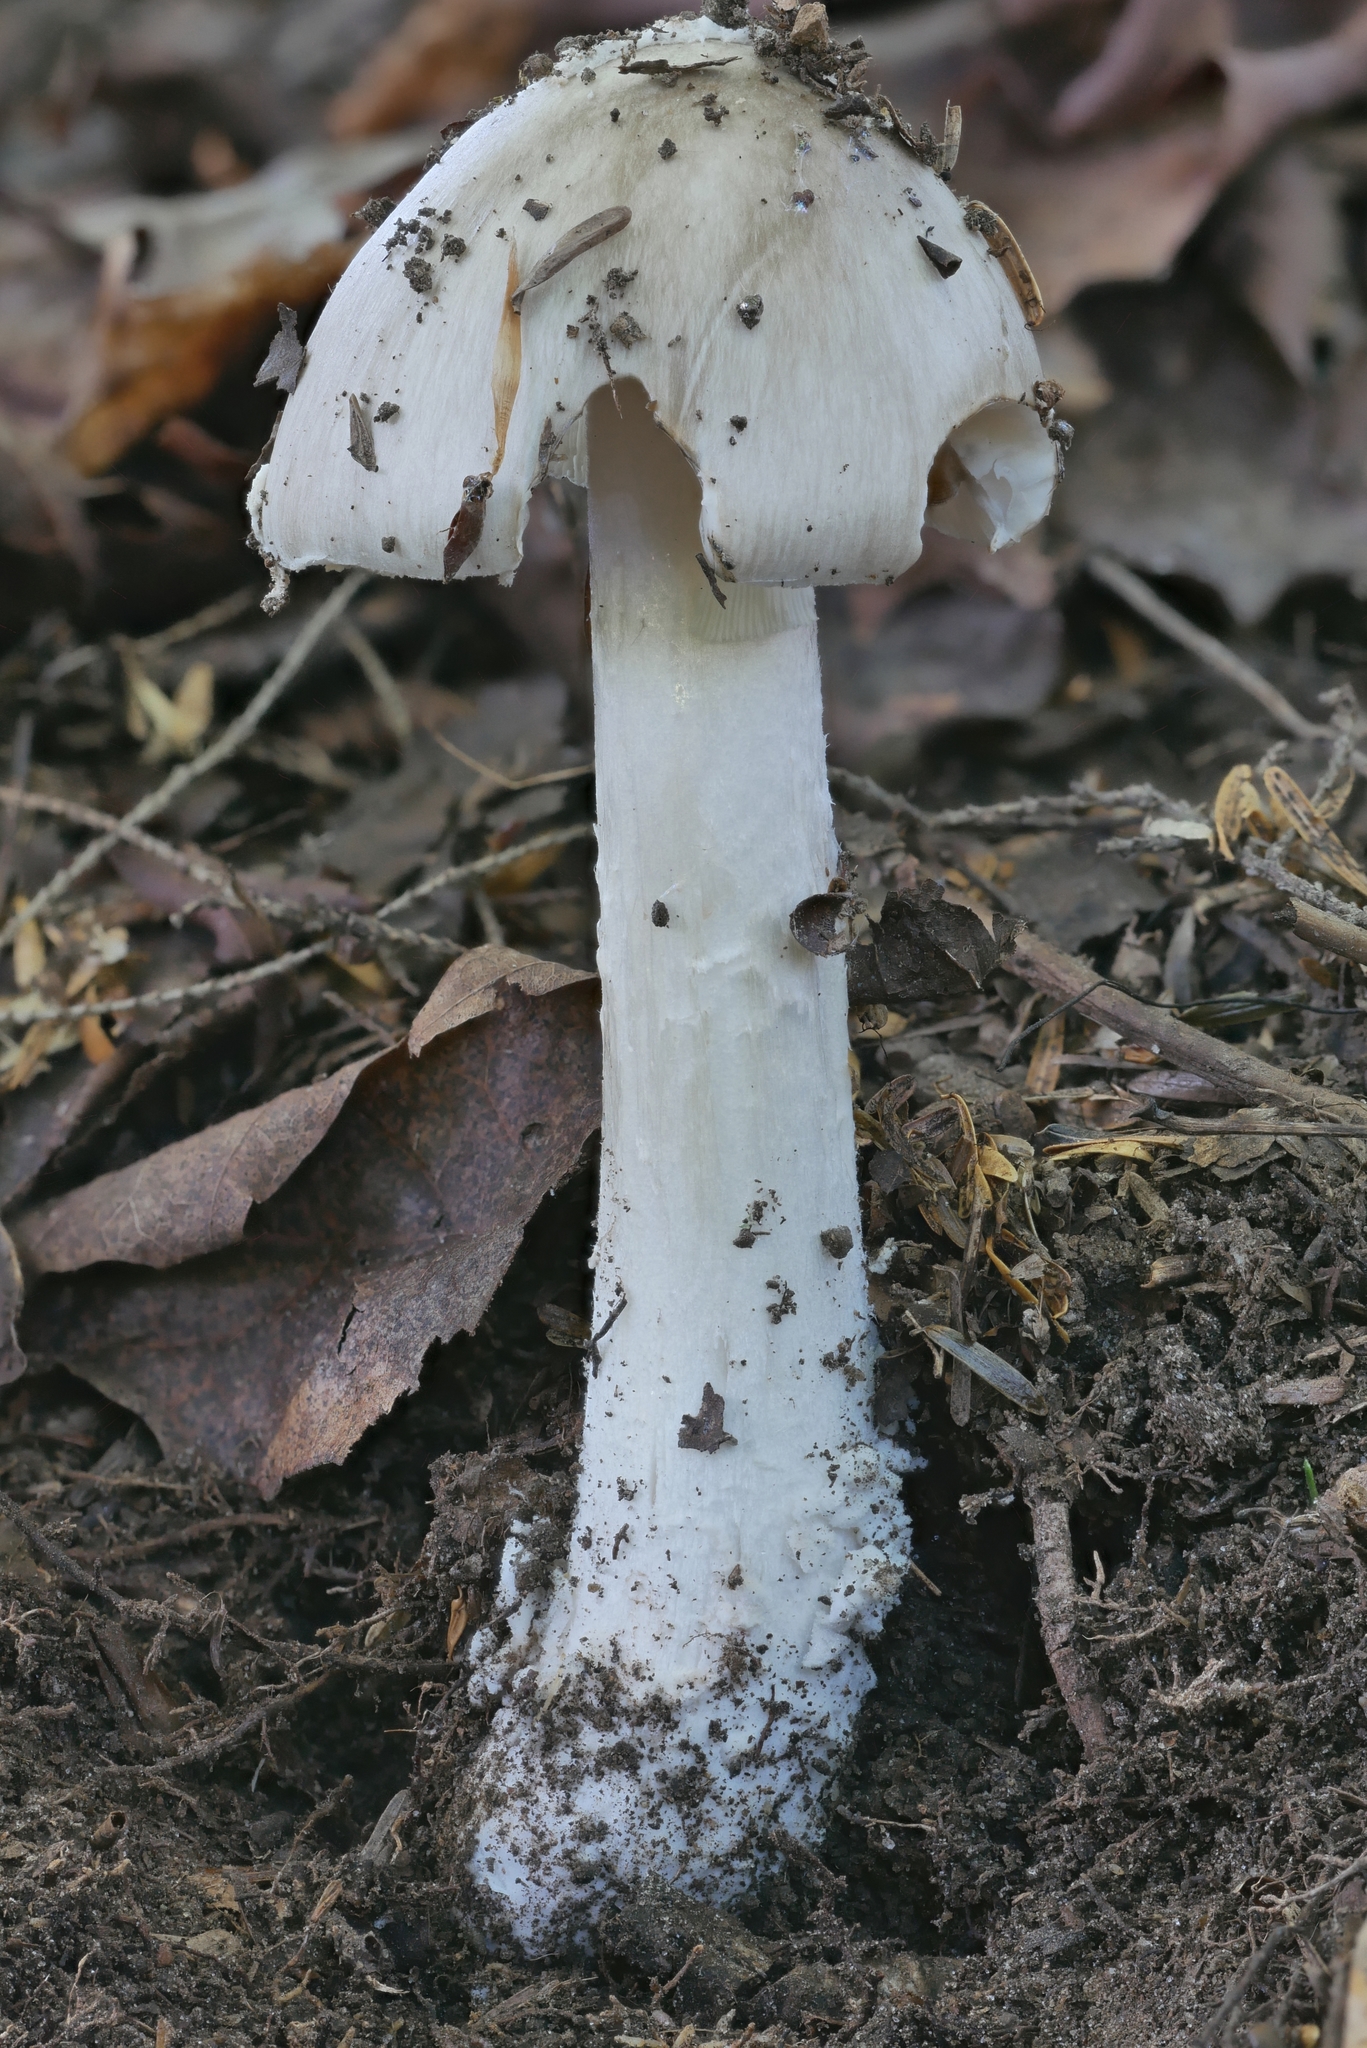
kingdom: Fungi
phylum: Basidiomycota
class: Agaricomycetes
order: Agaricales
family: Amanitaceae
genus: Amanita
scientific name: Amanita submaculata
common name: Ball gown amanita
